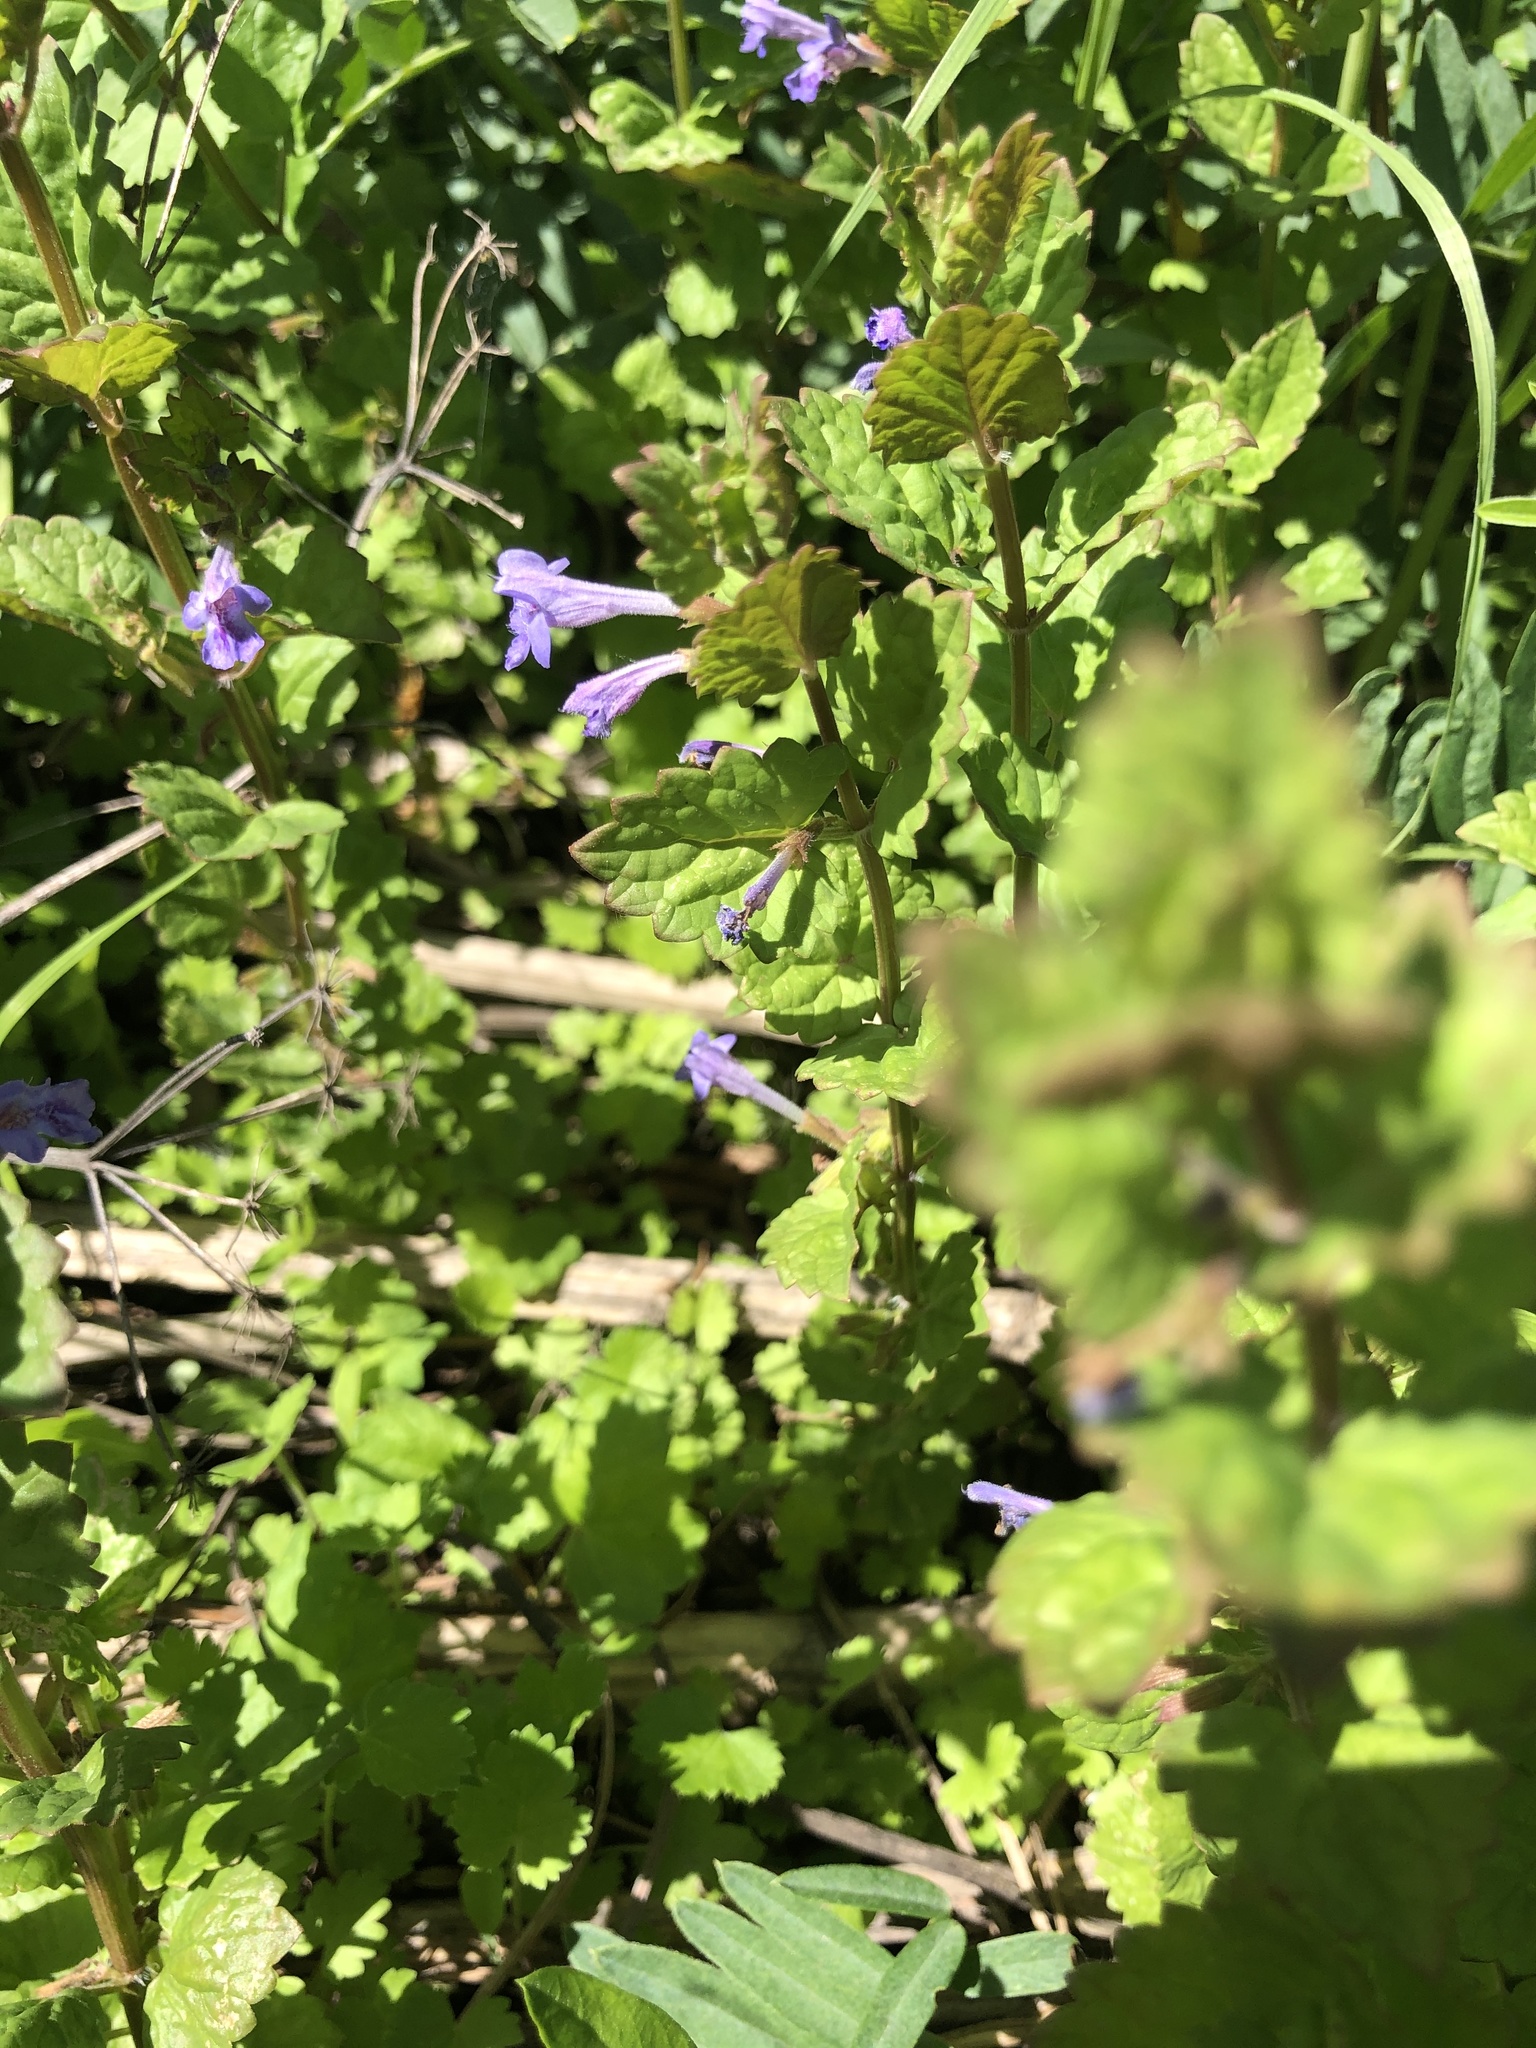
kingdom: Plantae
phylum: Tracheophyta
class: Magnoliopsida
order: Lamiales
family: Lamiaceae
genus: Glechoma
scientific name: Glechoma hederacea
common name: Ground ivy
